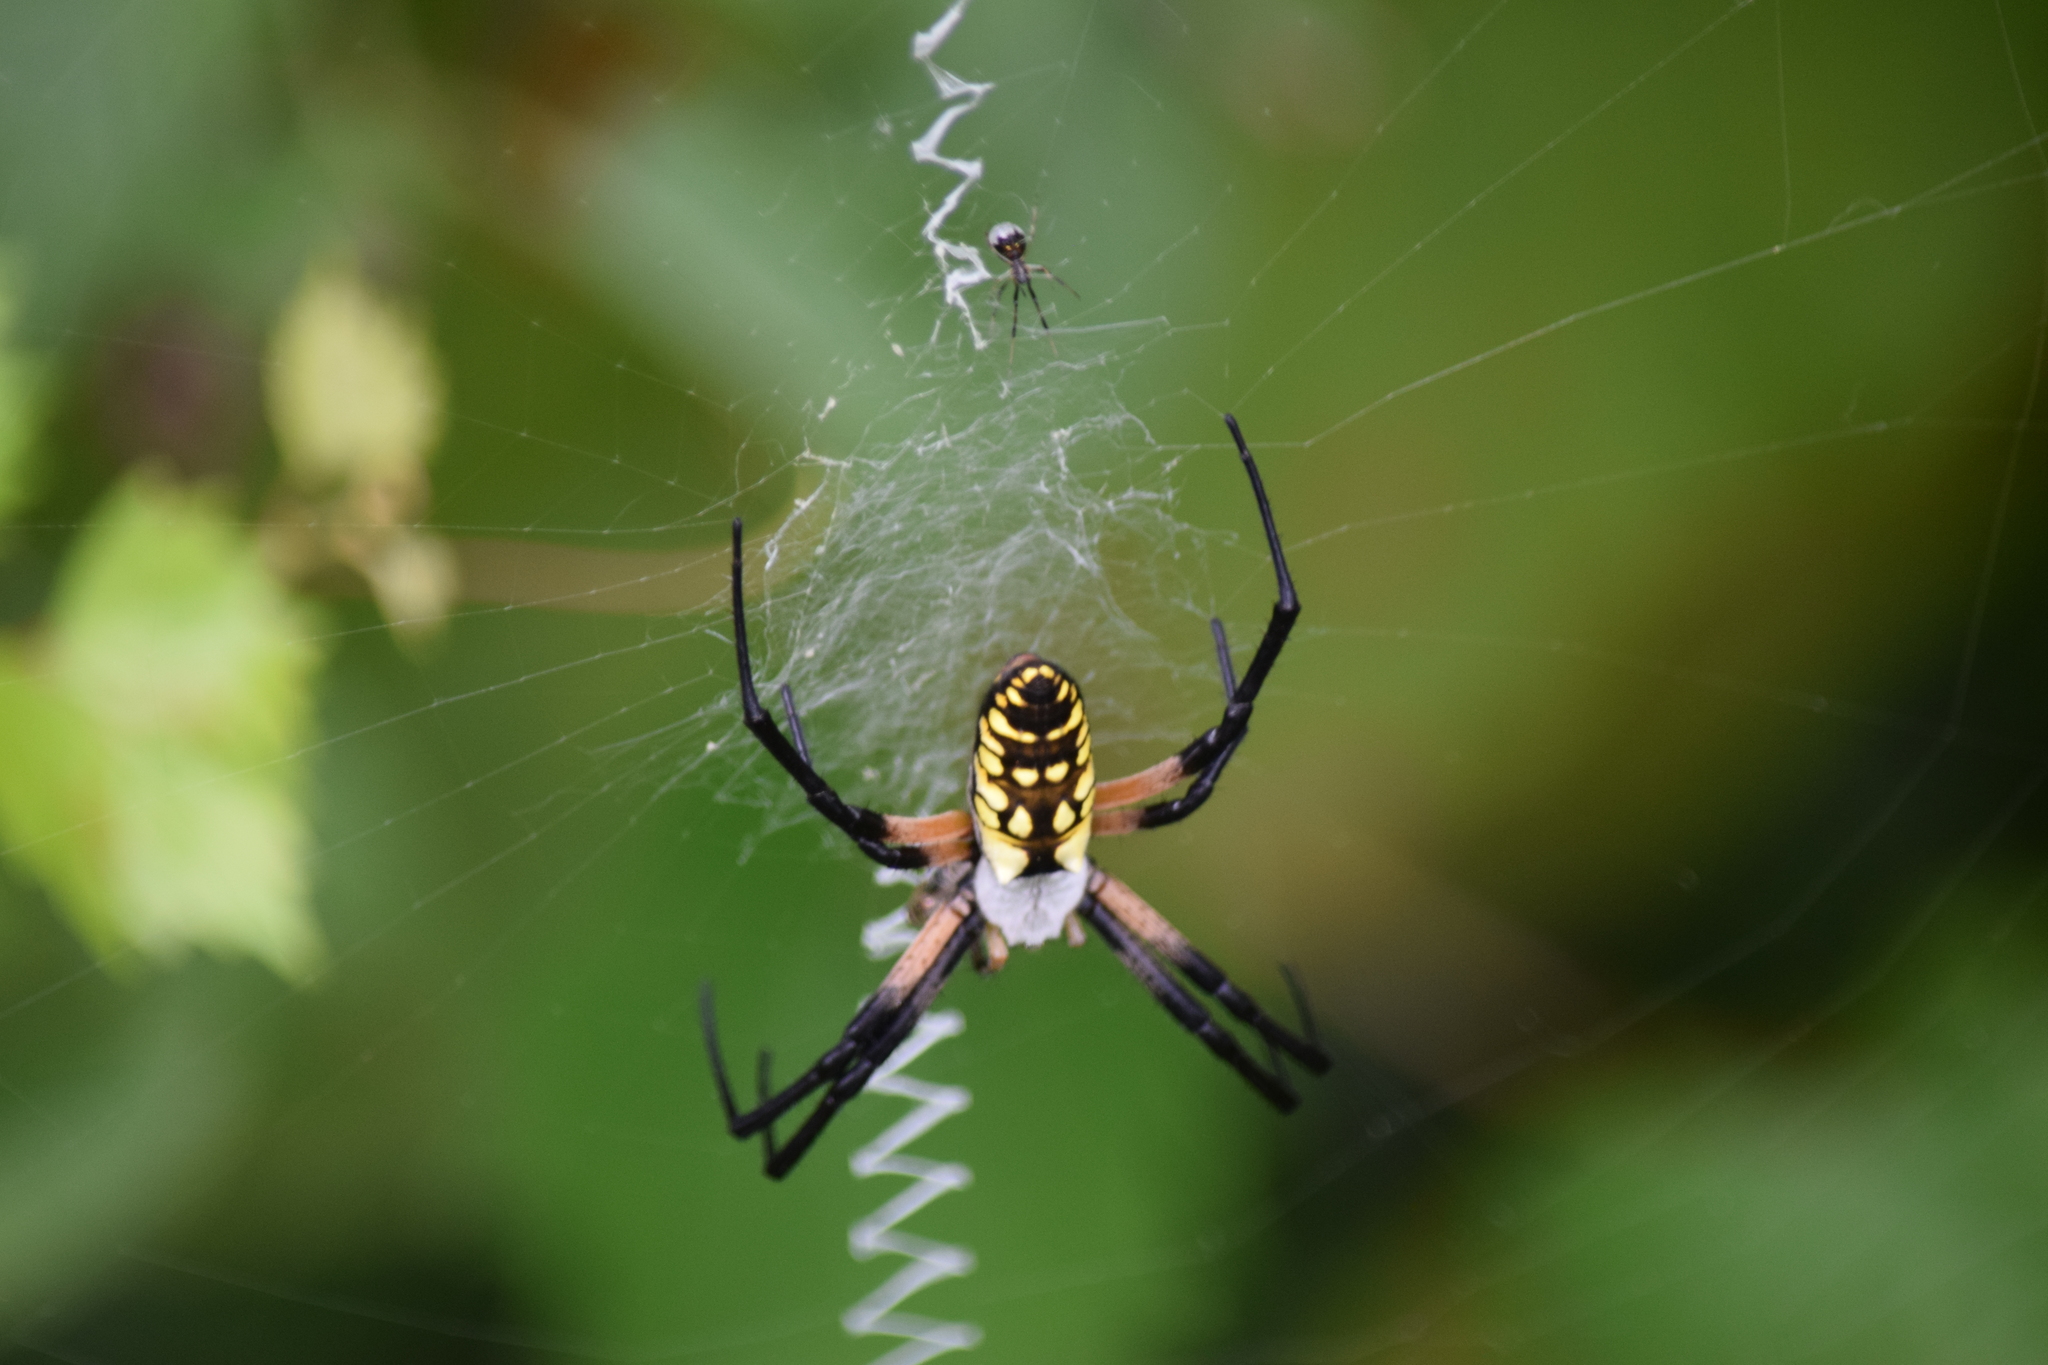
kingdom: Animalia
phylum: Arthropoda
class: Arachnida
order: Araneae
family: Araneidae
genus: Argiope
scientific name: Argiope aurantia
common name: Orb weavers
